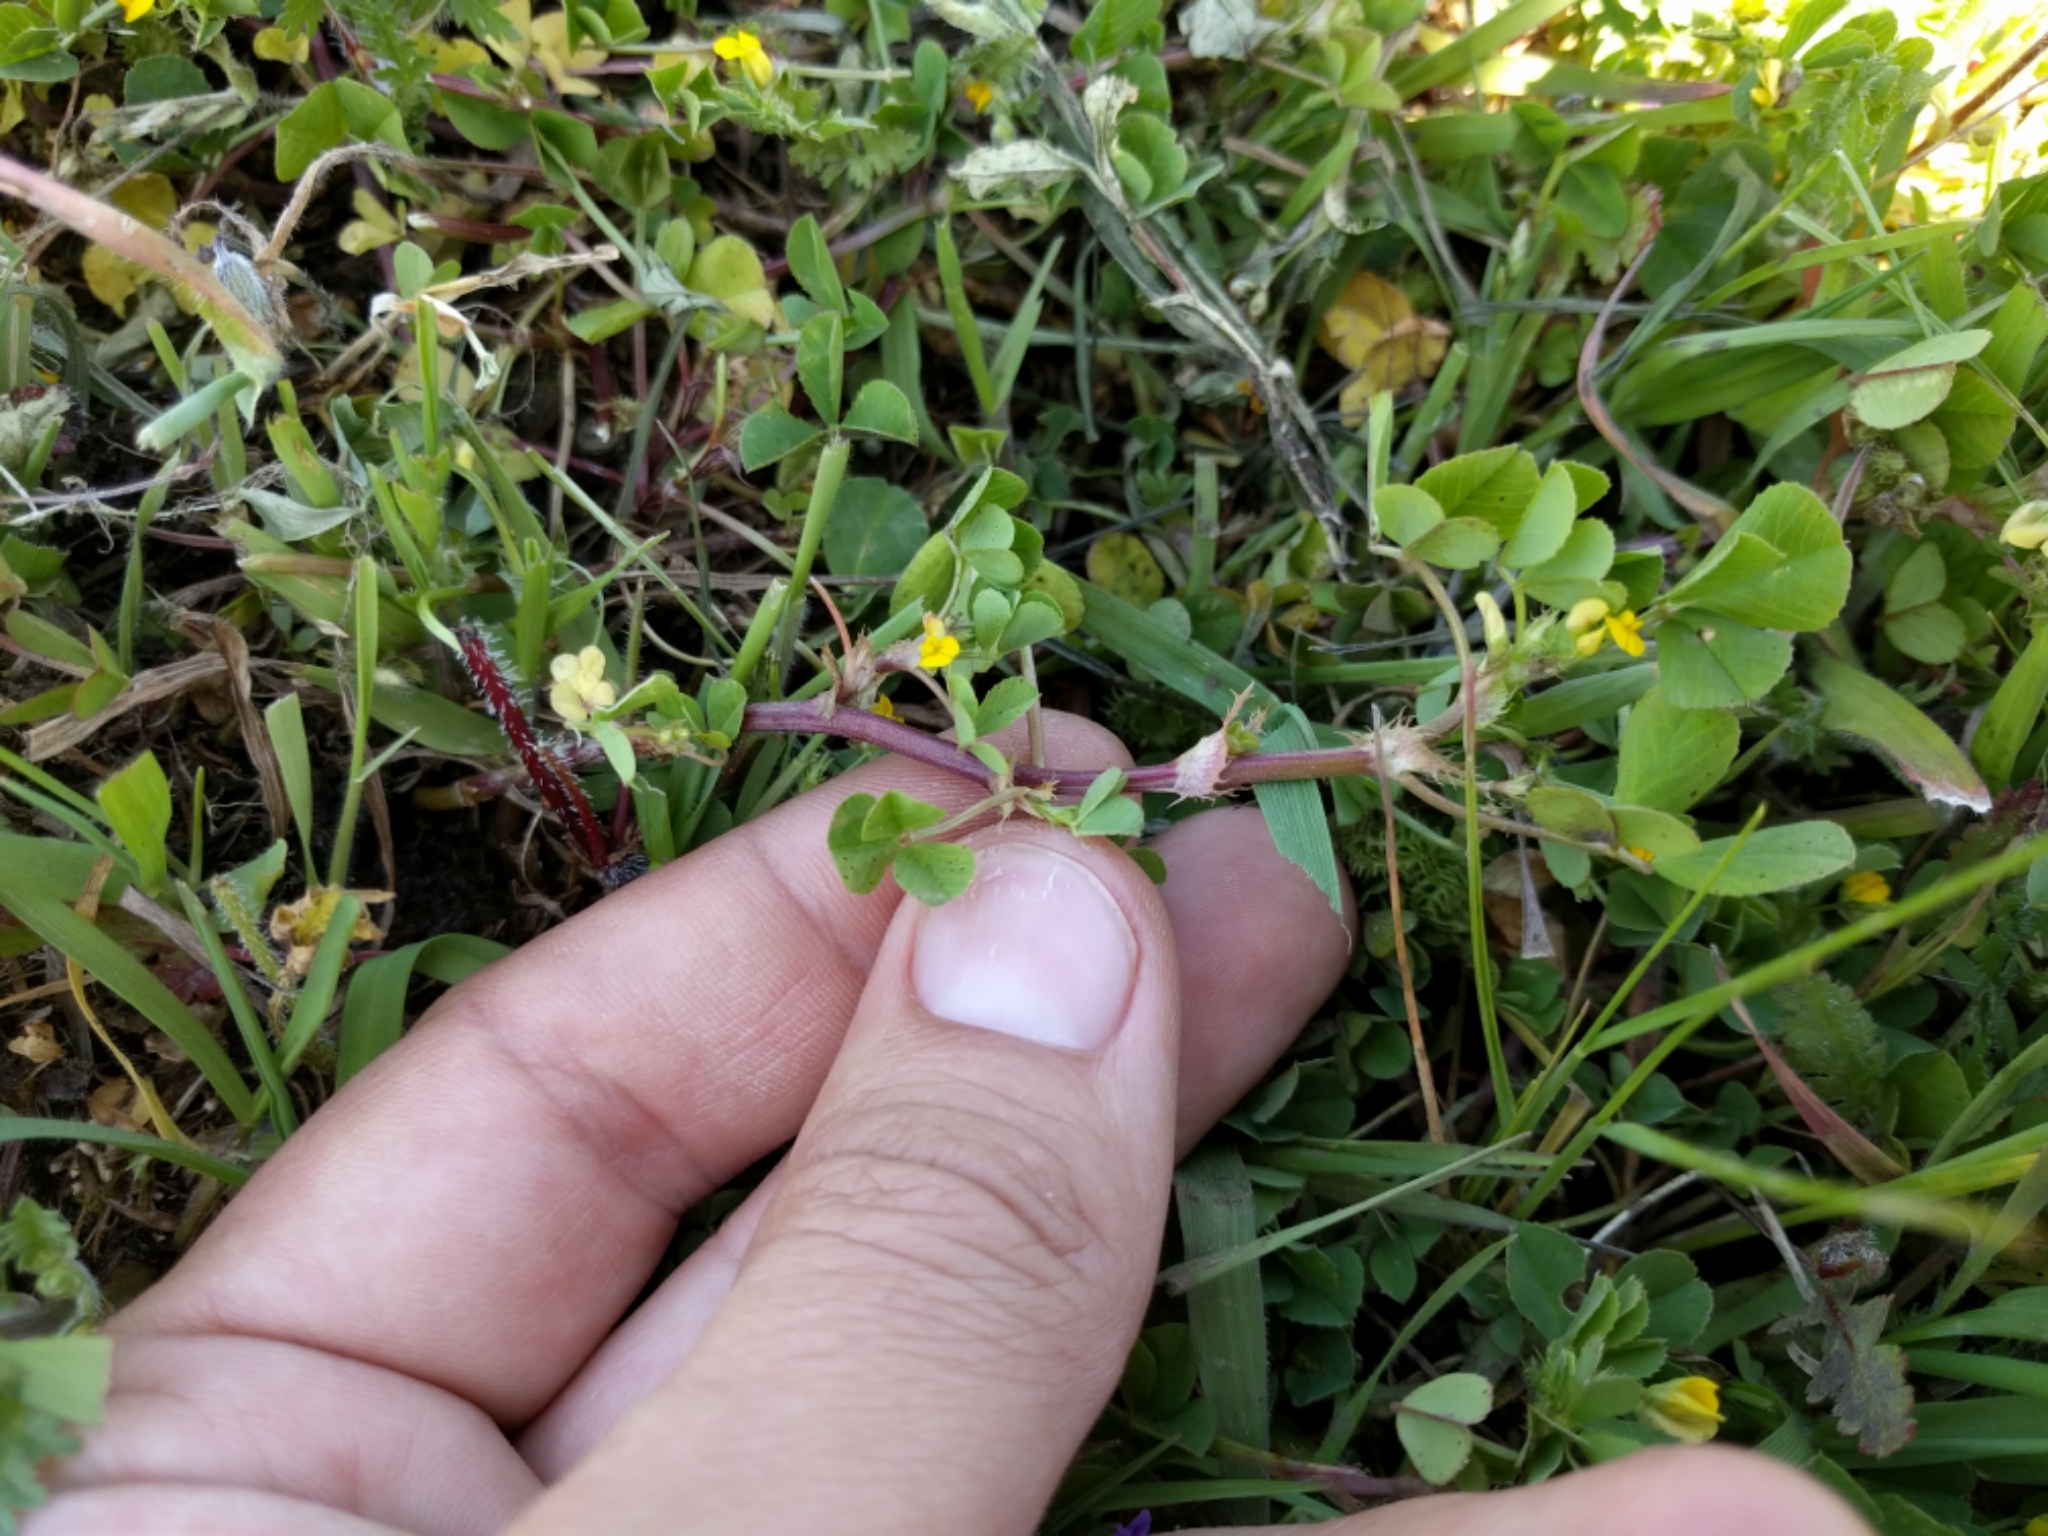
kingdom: Plantae
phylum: Tracheophyta
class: Magnoliopsida
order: Fabales
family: Fabaceae
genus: Medicago
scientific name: Medicago polymorpha
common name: Burclover
